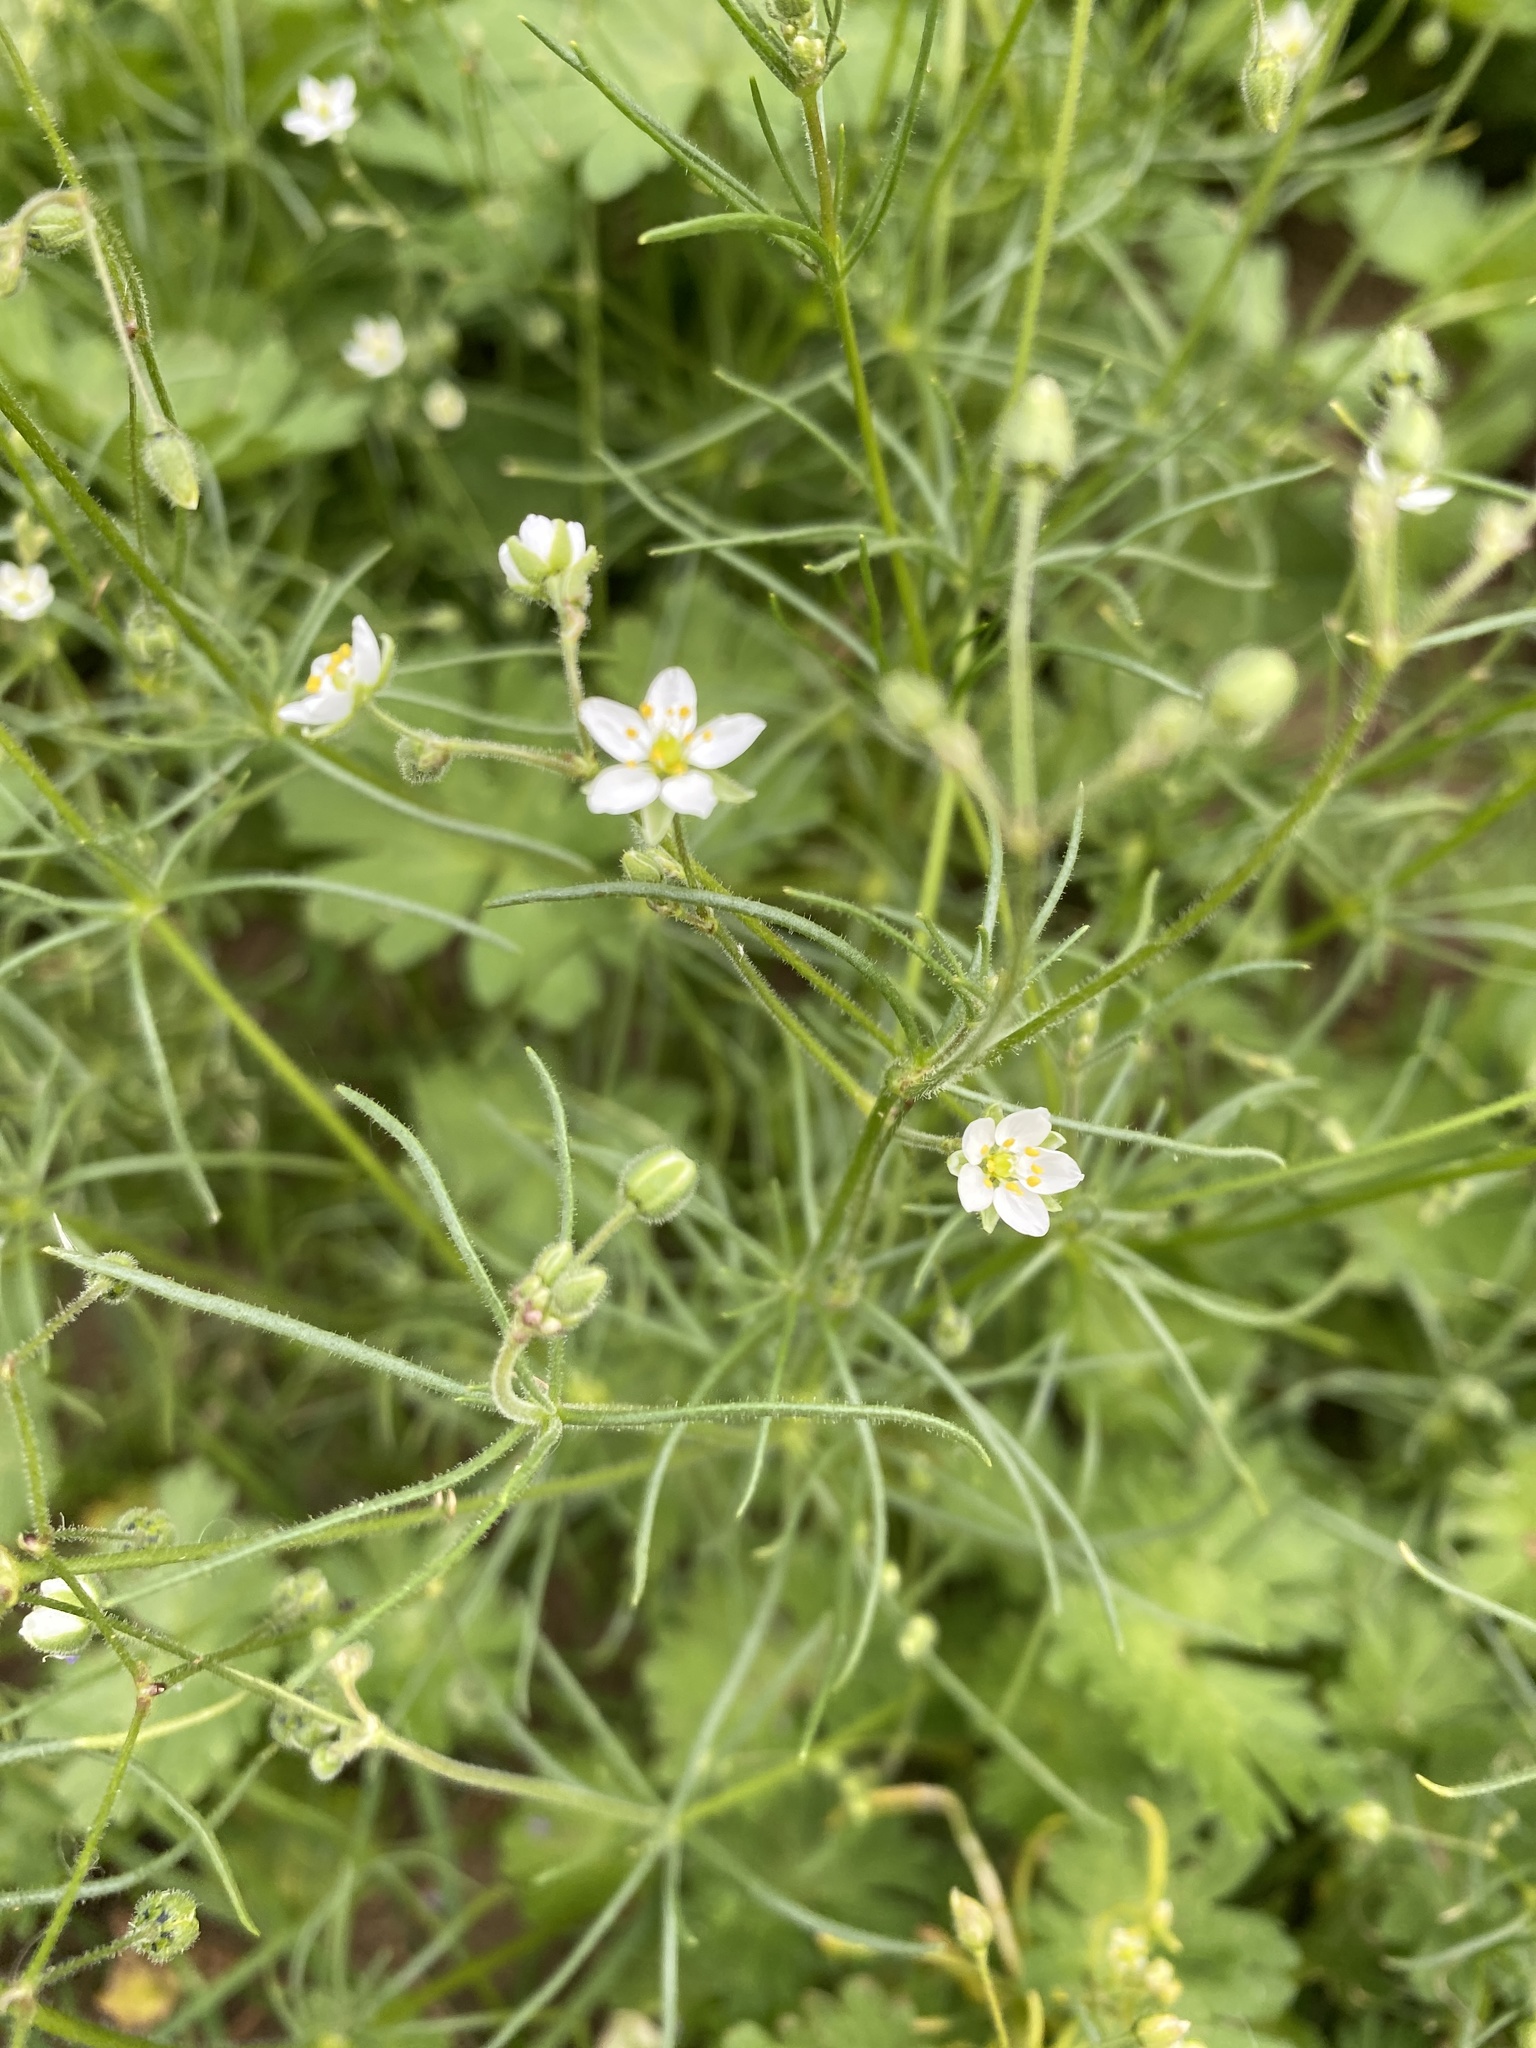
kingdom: Plantae
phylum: Tracheophyta
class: Magnoliopsida
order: Caryophyllales
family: Caryophyllaceae
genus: Spergula
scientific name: Spergula arvensis
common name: Corn spurrey
